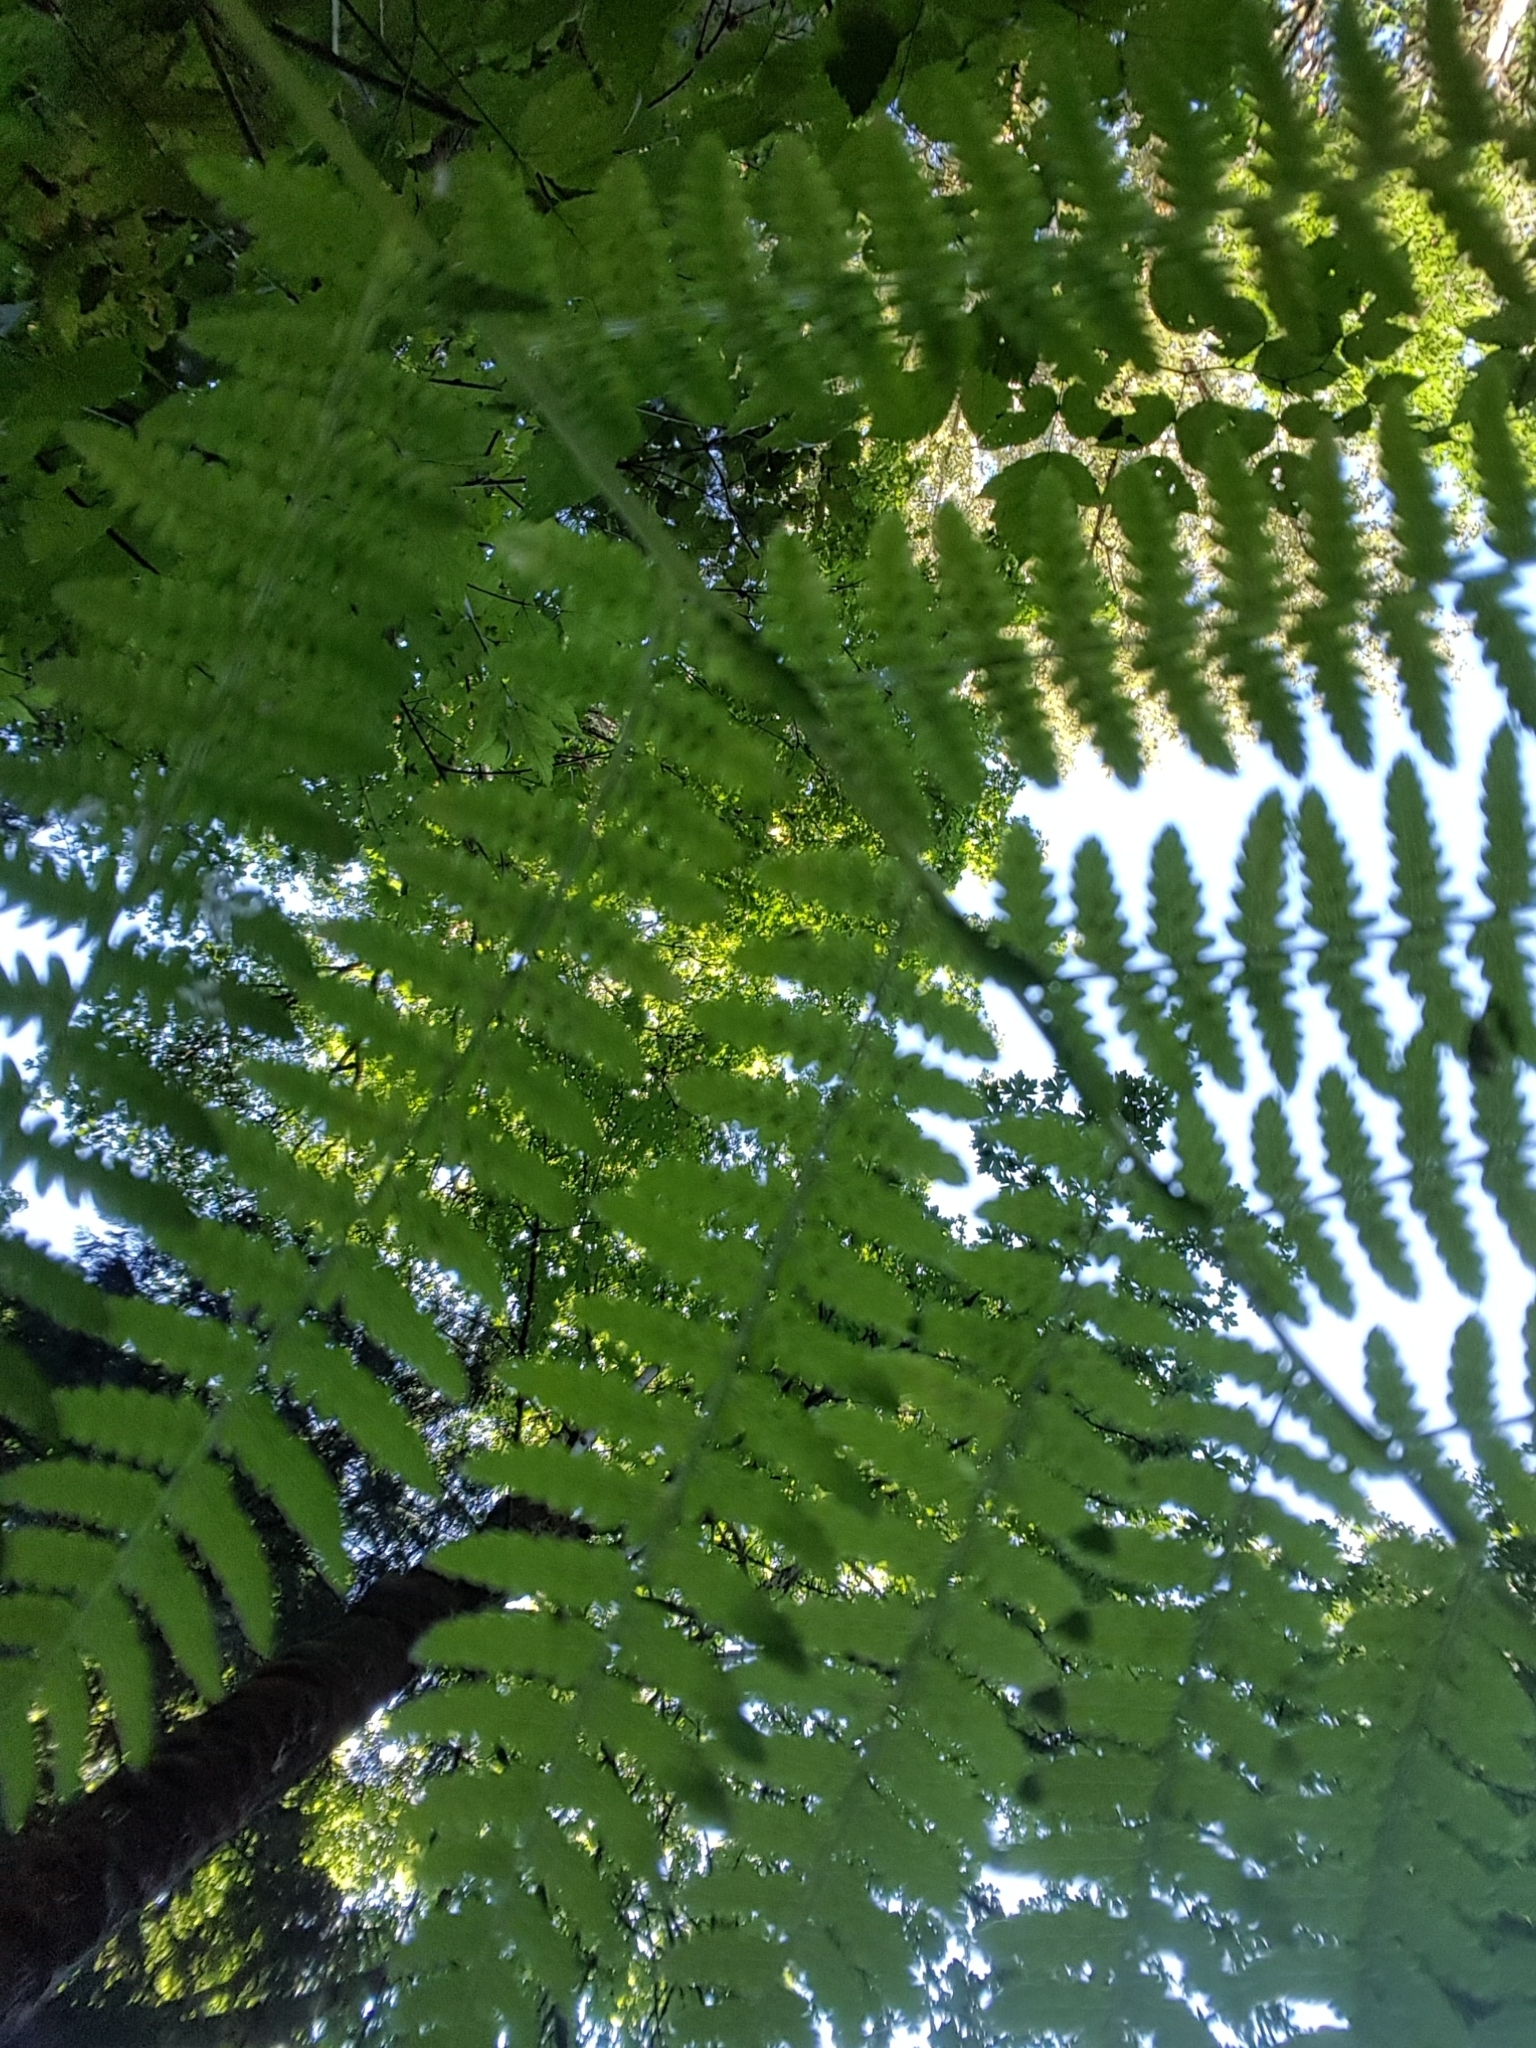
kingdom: Plantae
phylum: Tracheophyta
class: Polypodiopsida
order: Polypodiales
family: Athyriaceae
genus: Athyrium
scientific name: Athyrium cyclosorum
